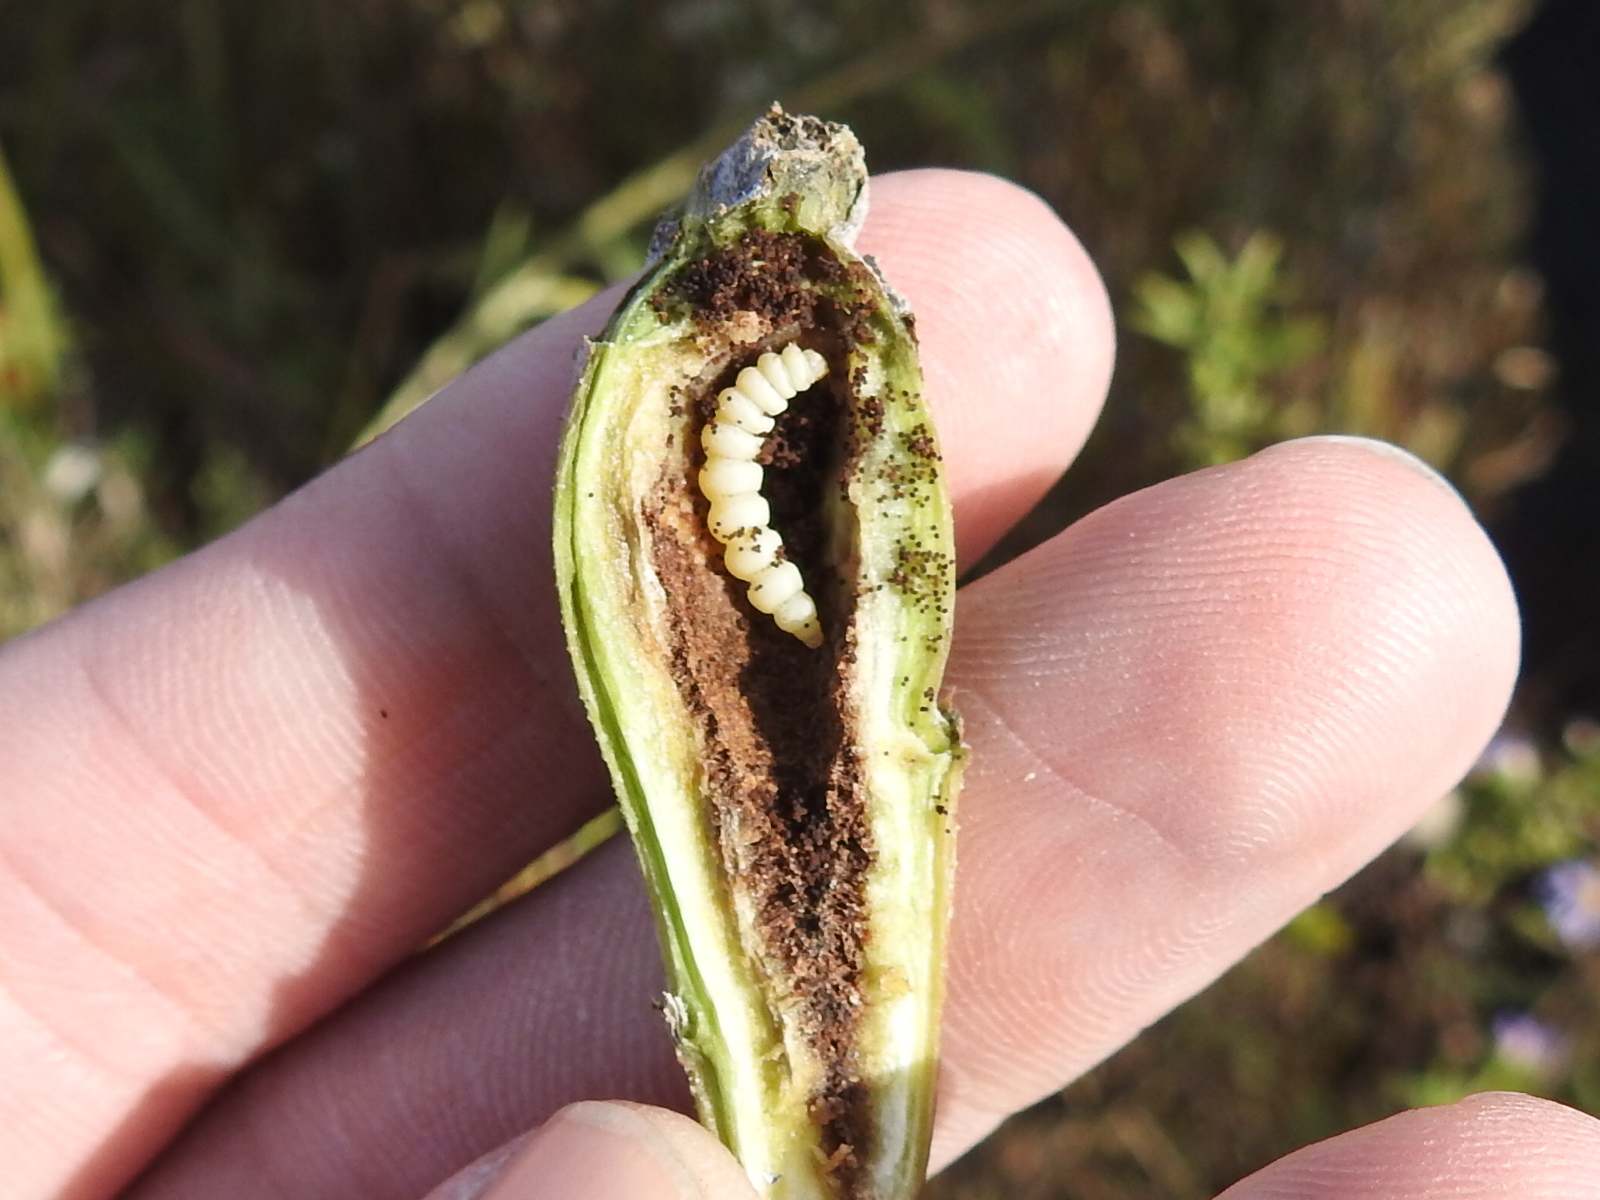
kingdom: Animalia
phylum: Arthropoda
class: Insecta
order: Lepidoptera
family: Gelechiidae
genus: Gnorimoschema
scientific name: Gnorimoschema gallaesolidaginis
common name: Goldenrod elliptical-gall moth
